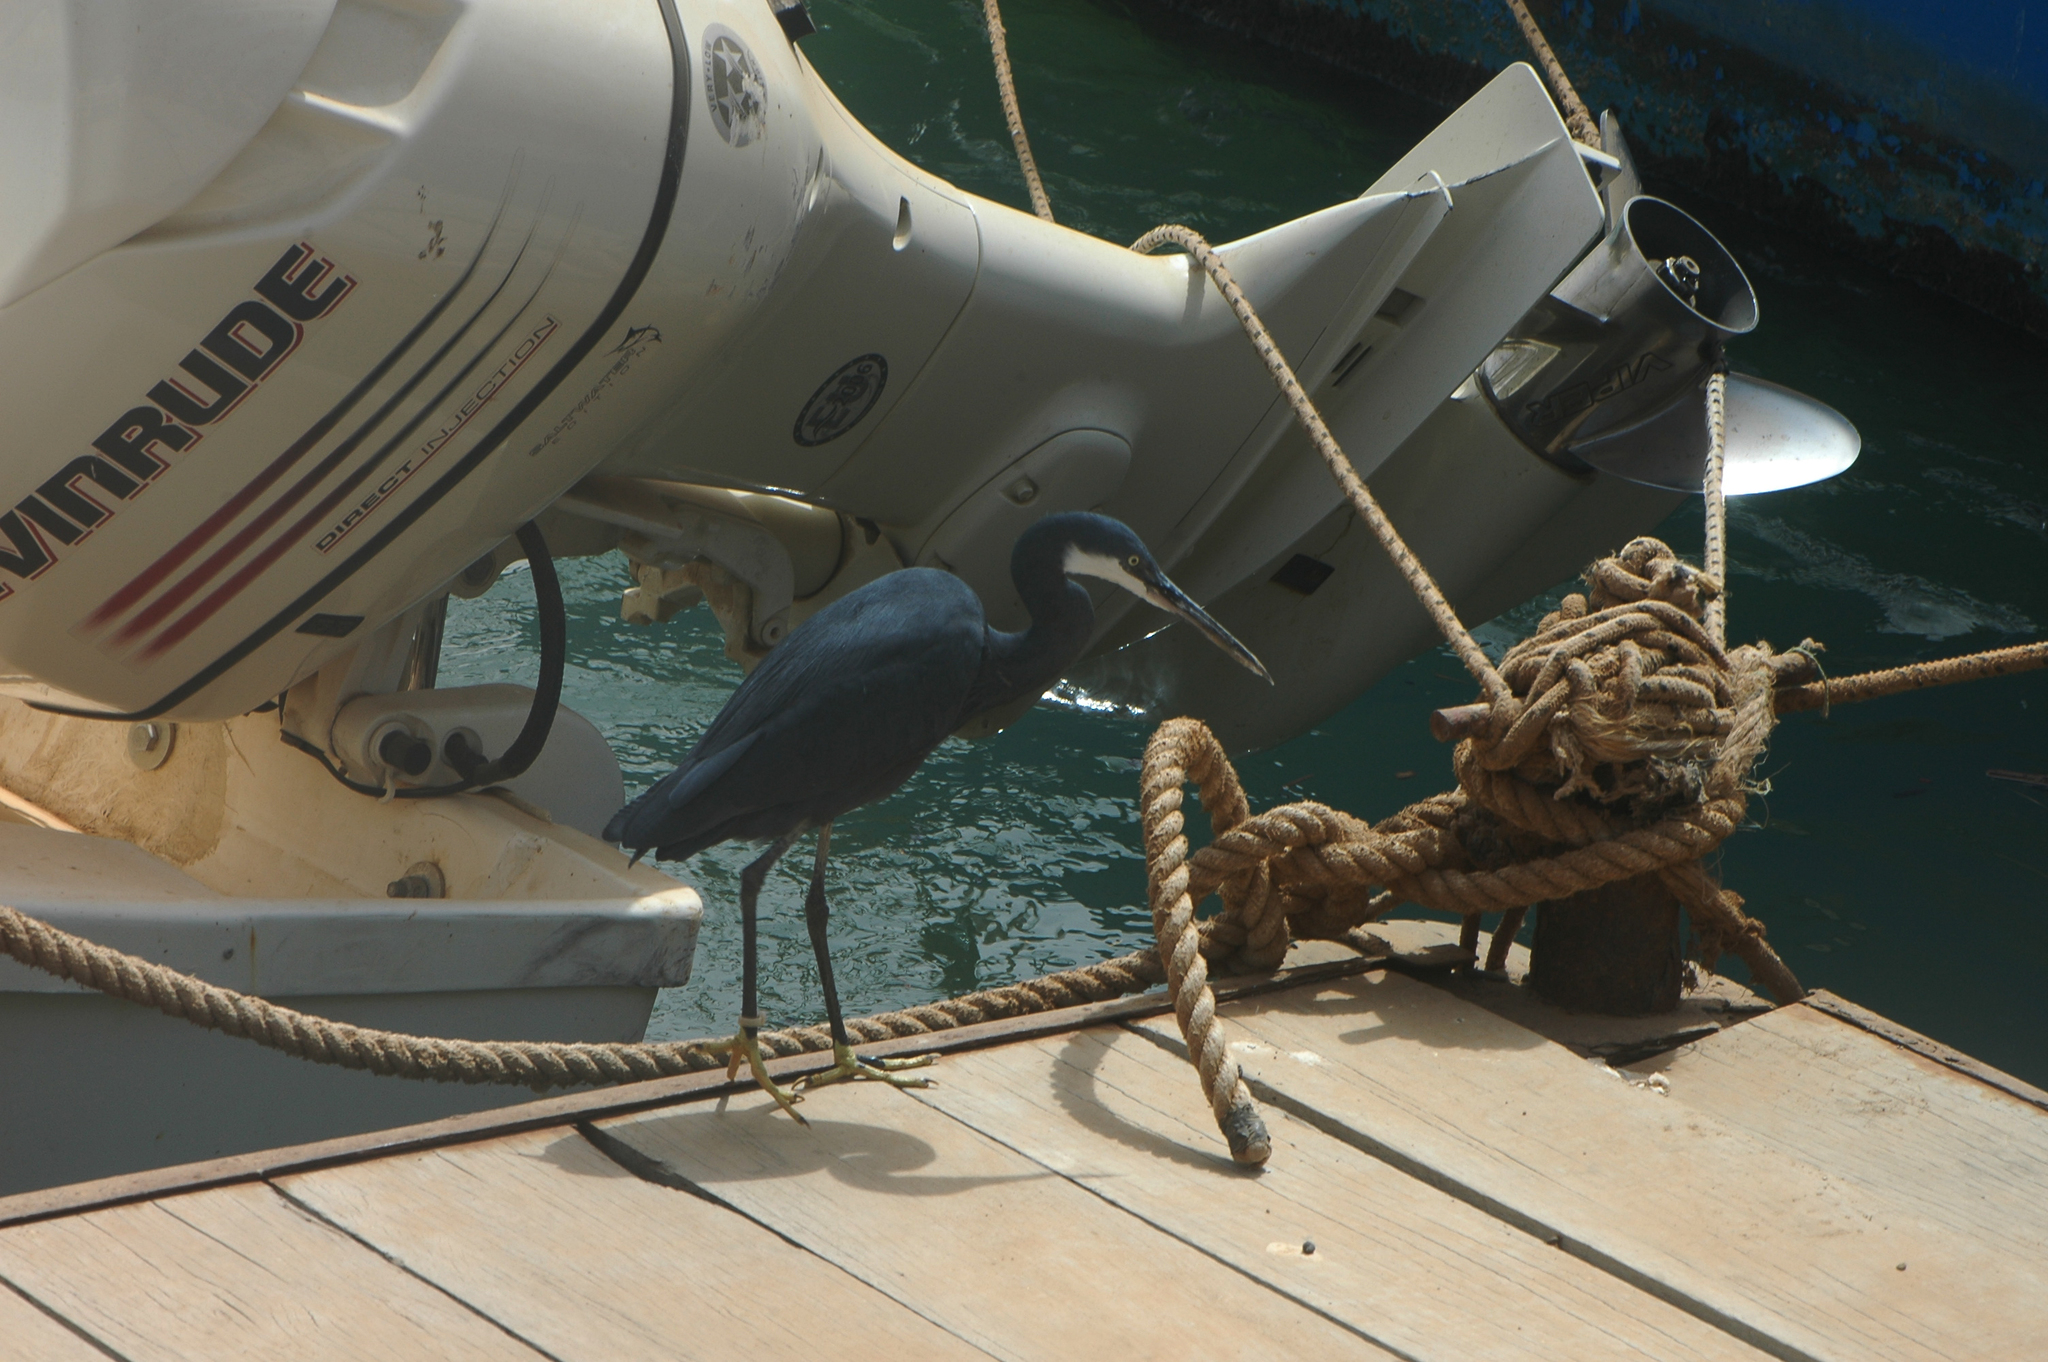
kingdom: Animalia
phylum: Chordata
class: Aves
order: Pelecaniformes
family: Ardeidae
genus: Egretta
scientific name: Egretta gularis
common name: Western reef-heron
